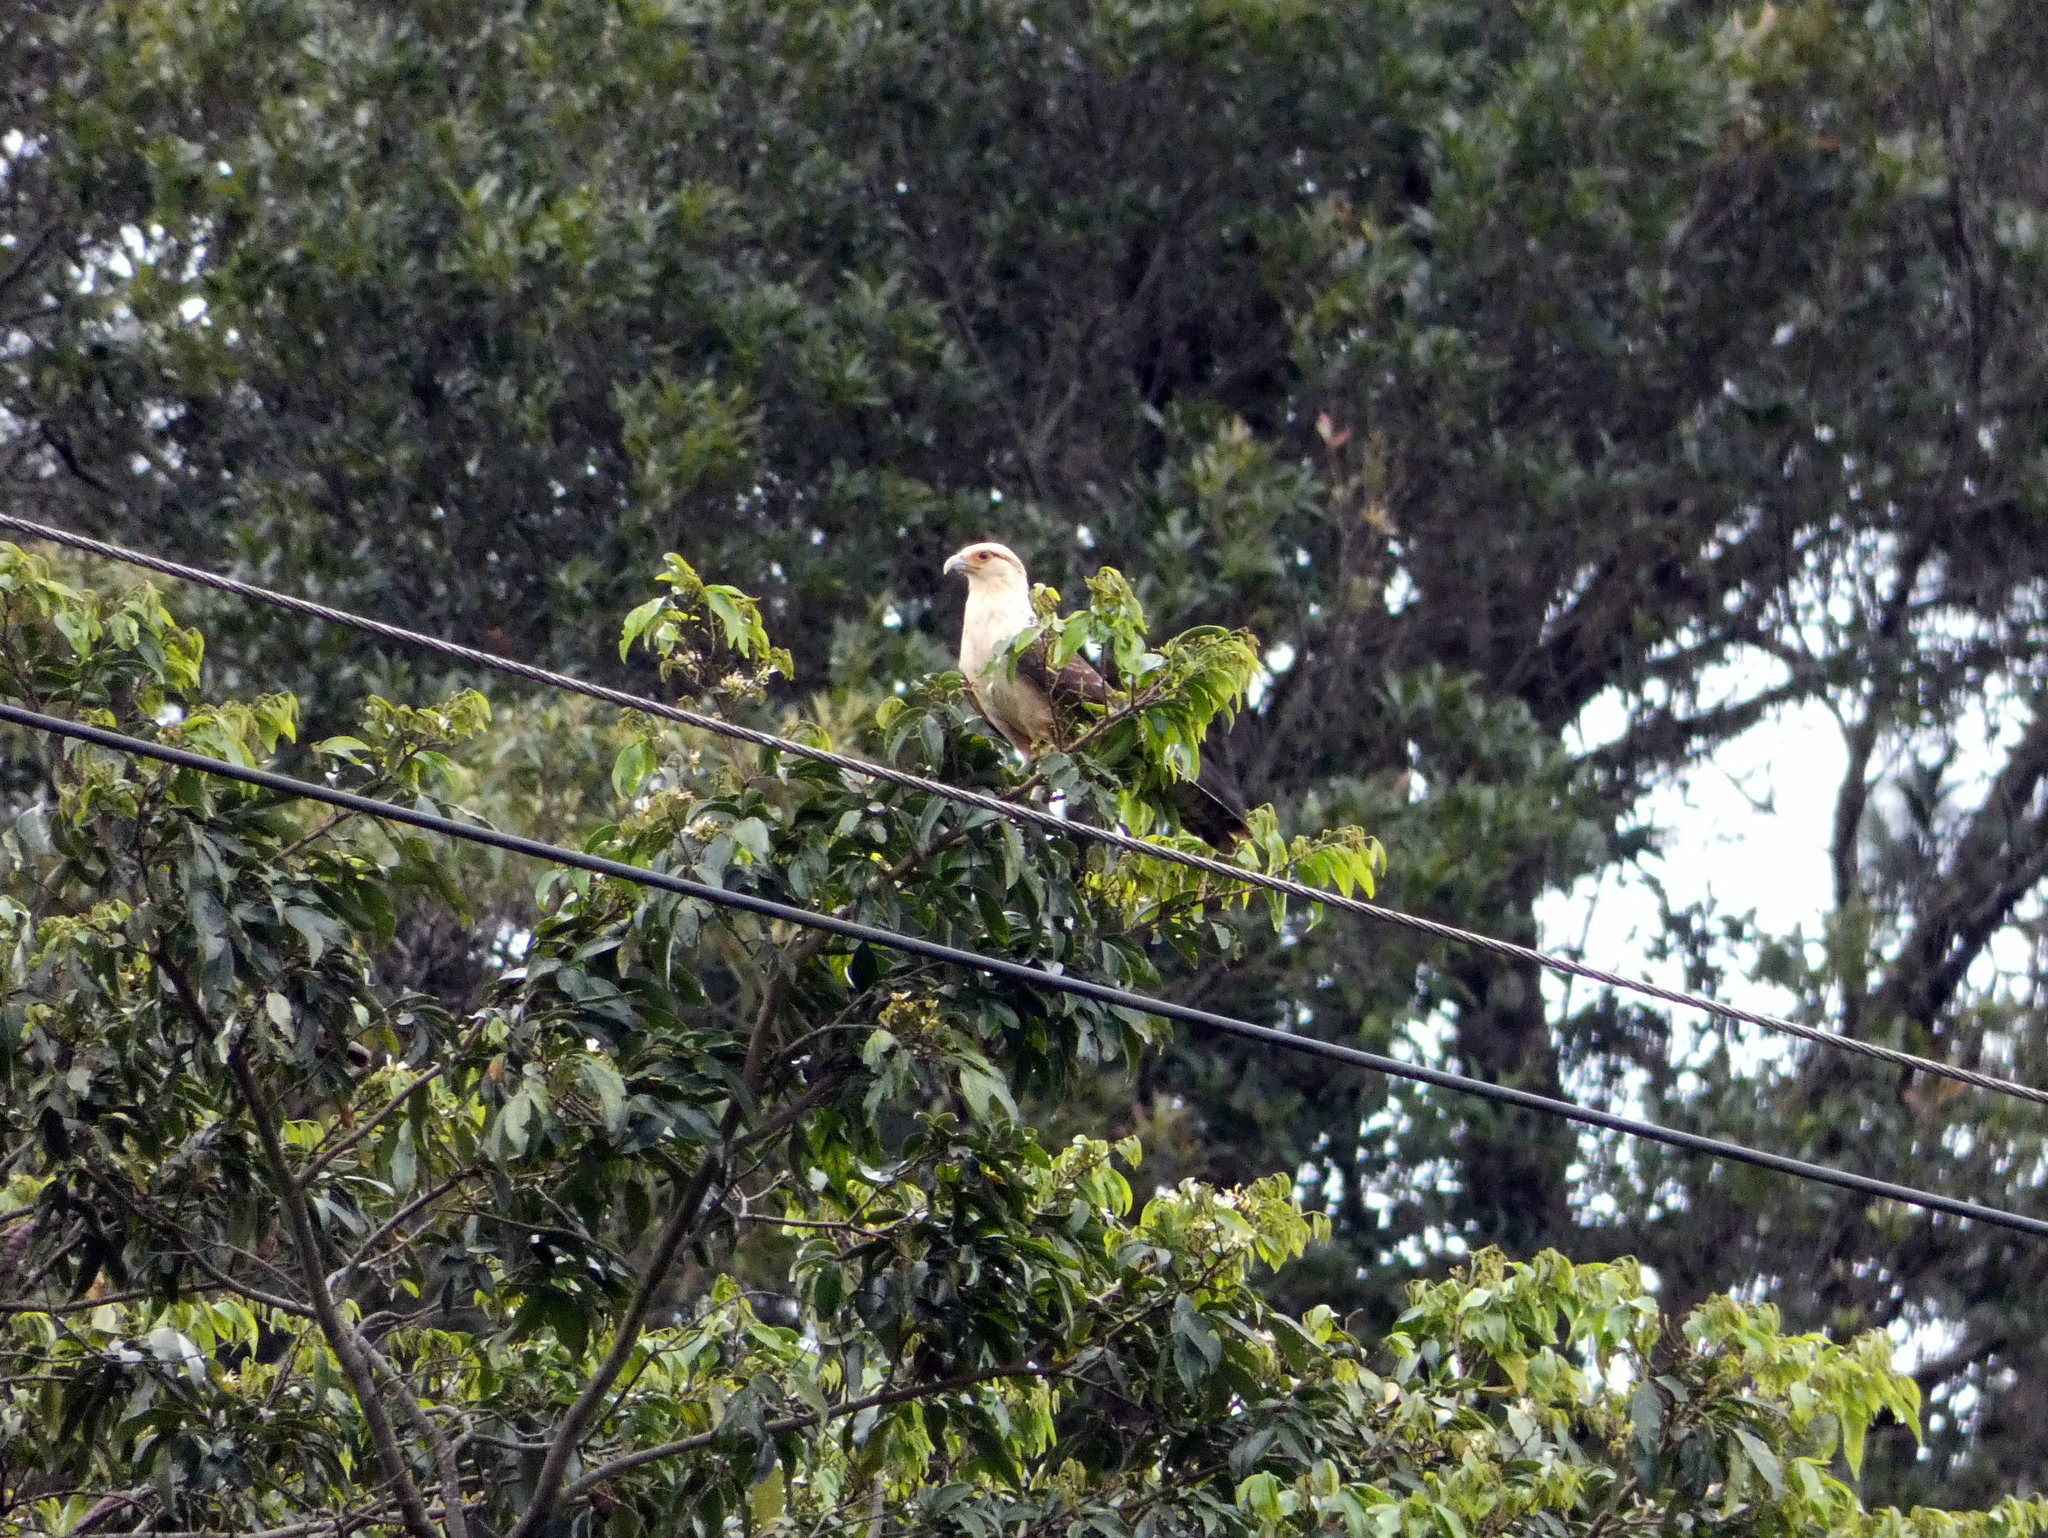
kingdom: Animalia
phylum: Chordata
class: Aves
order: Falconiformes
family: Falconidae
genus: Daptrius
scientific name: Daptrius
